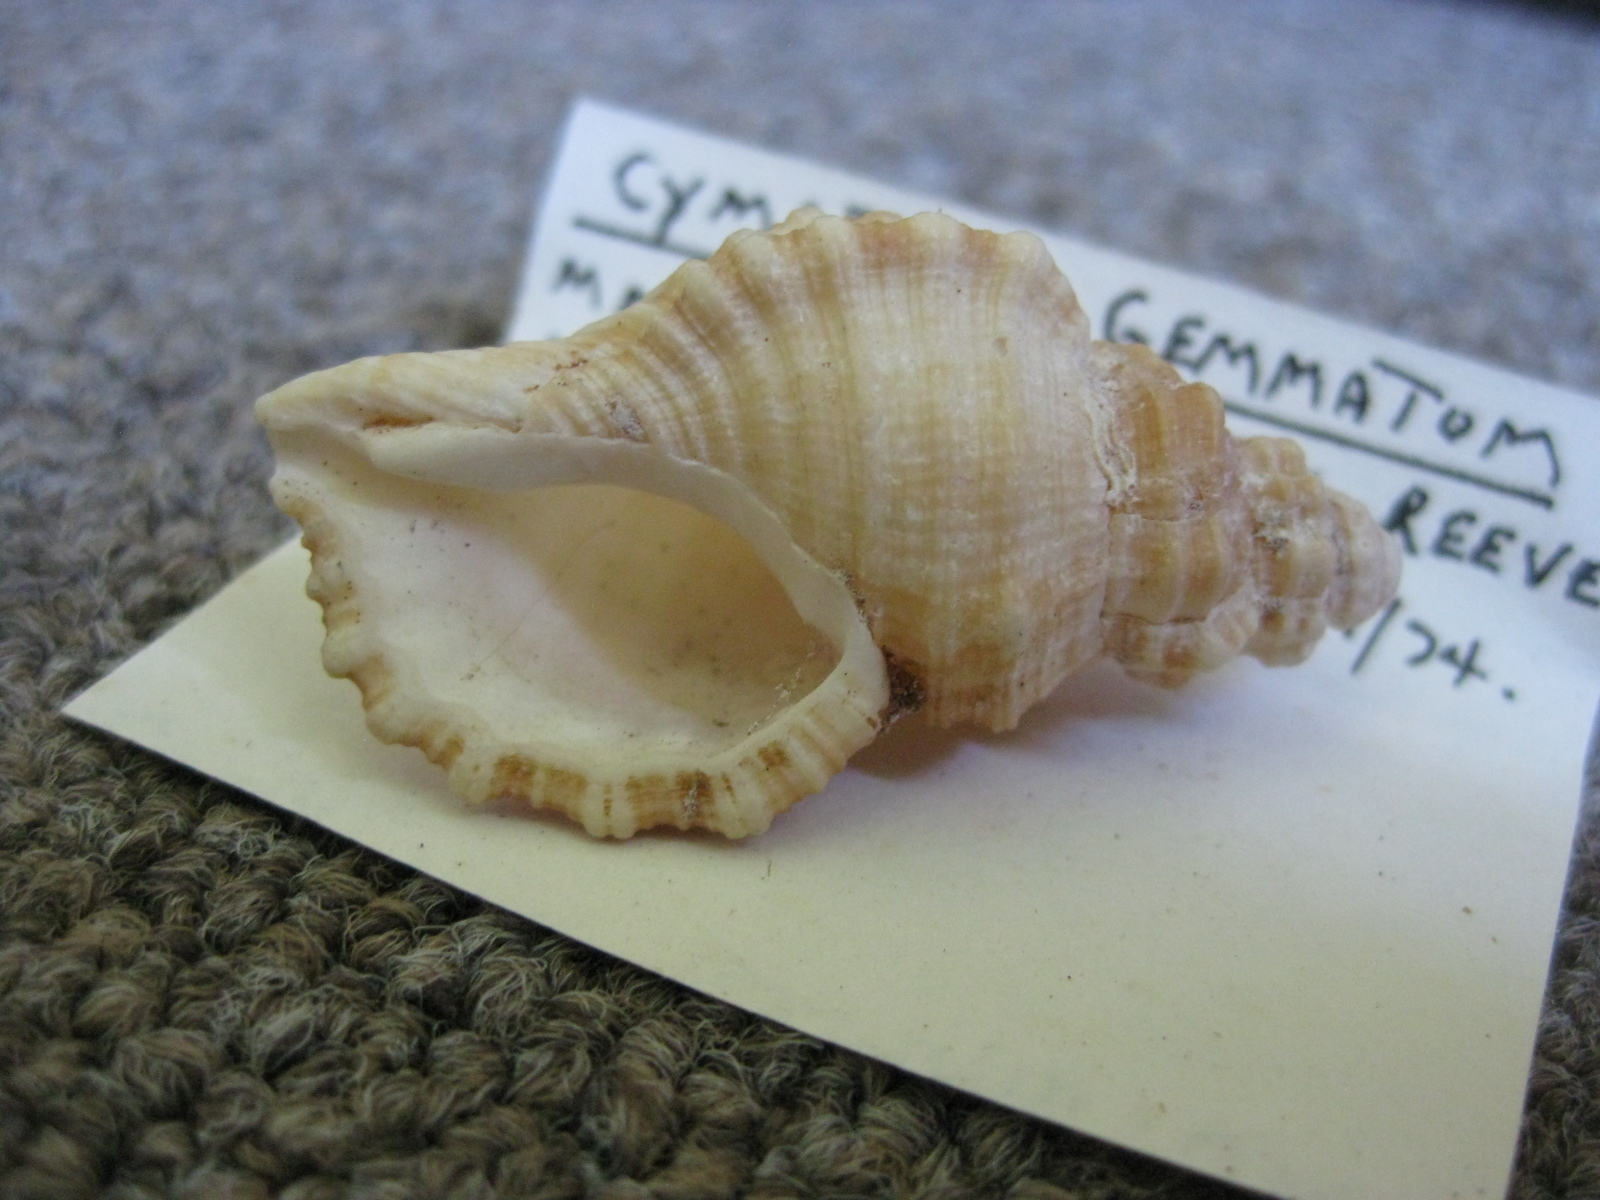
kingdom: Animalia
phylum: Mollusca
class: Gastropoda
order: Littorinimorpha
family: Cymatiidae
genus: Monoplex
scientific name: Monoplex gemmatus
